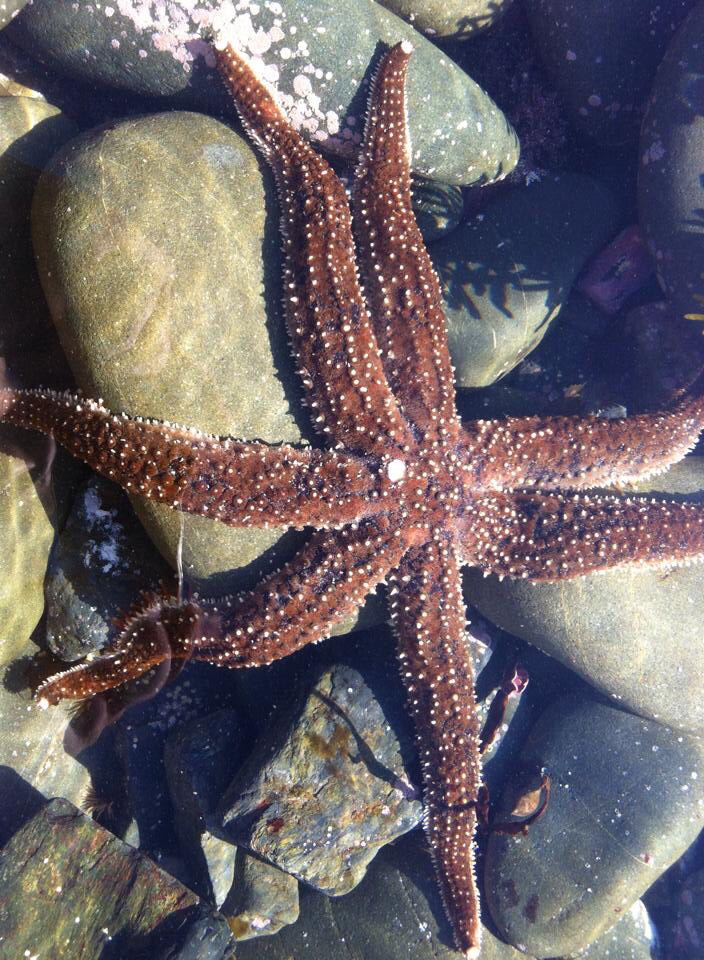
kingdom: Animalia
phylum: Echinodermata
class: Asteroidea
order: Forcipulatida
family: Asteriidae
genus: Astrostole
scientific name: Astrostole scabra
